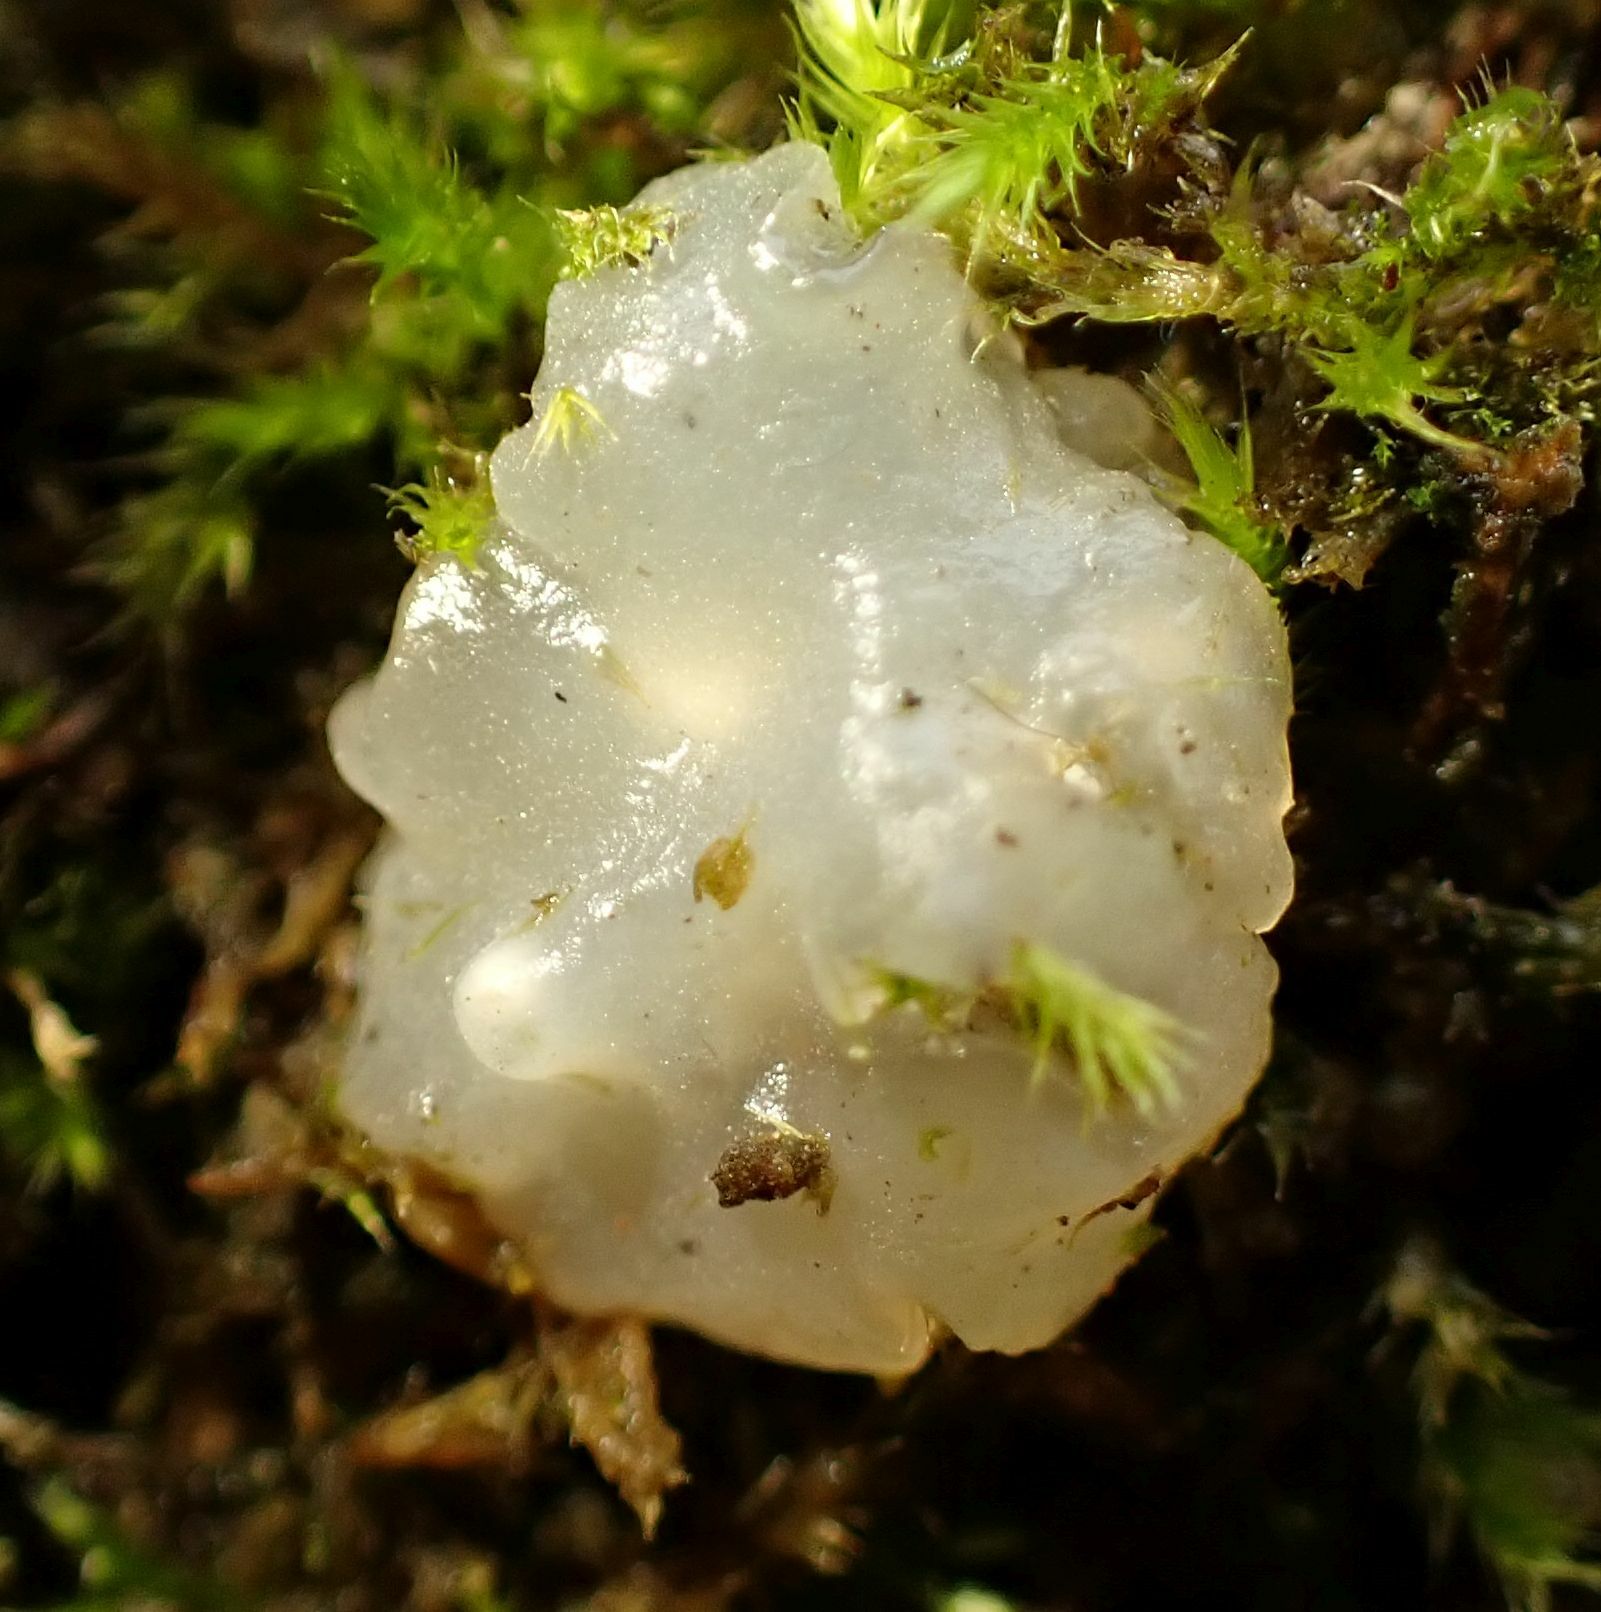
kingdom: Fungi
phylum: Basidiomycota
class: Agaricomycetes
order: Auriculariales
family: Hyaloriaceae
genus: Myxarium
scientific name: Myxarium nucleatum
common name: Crystal brain fungus
